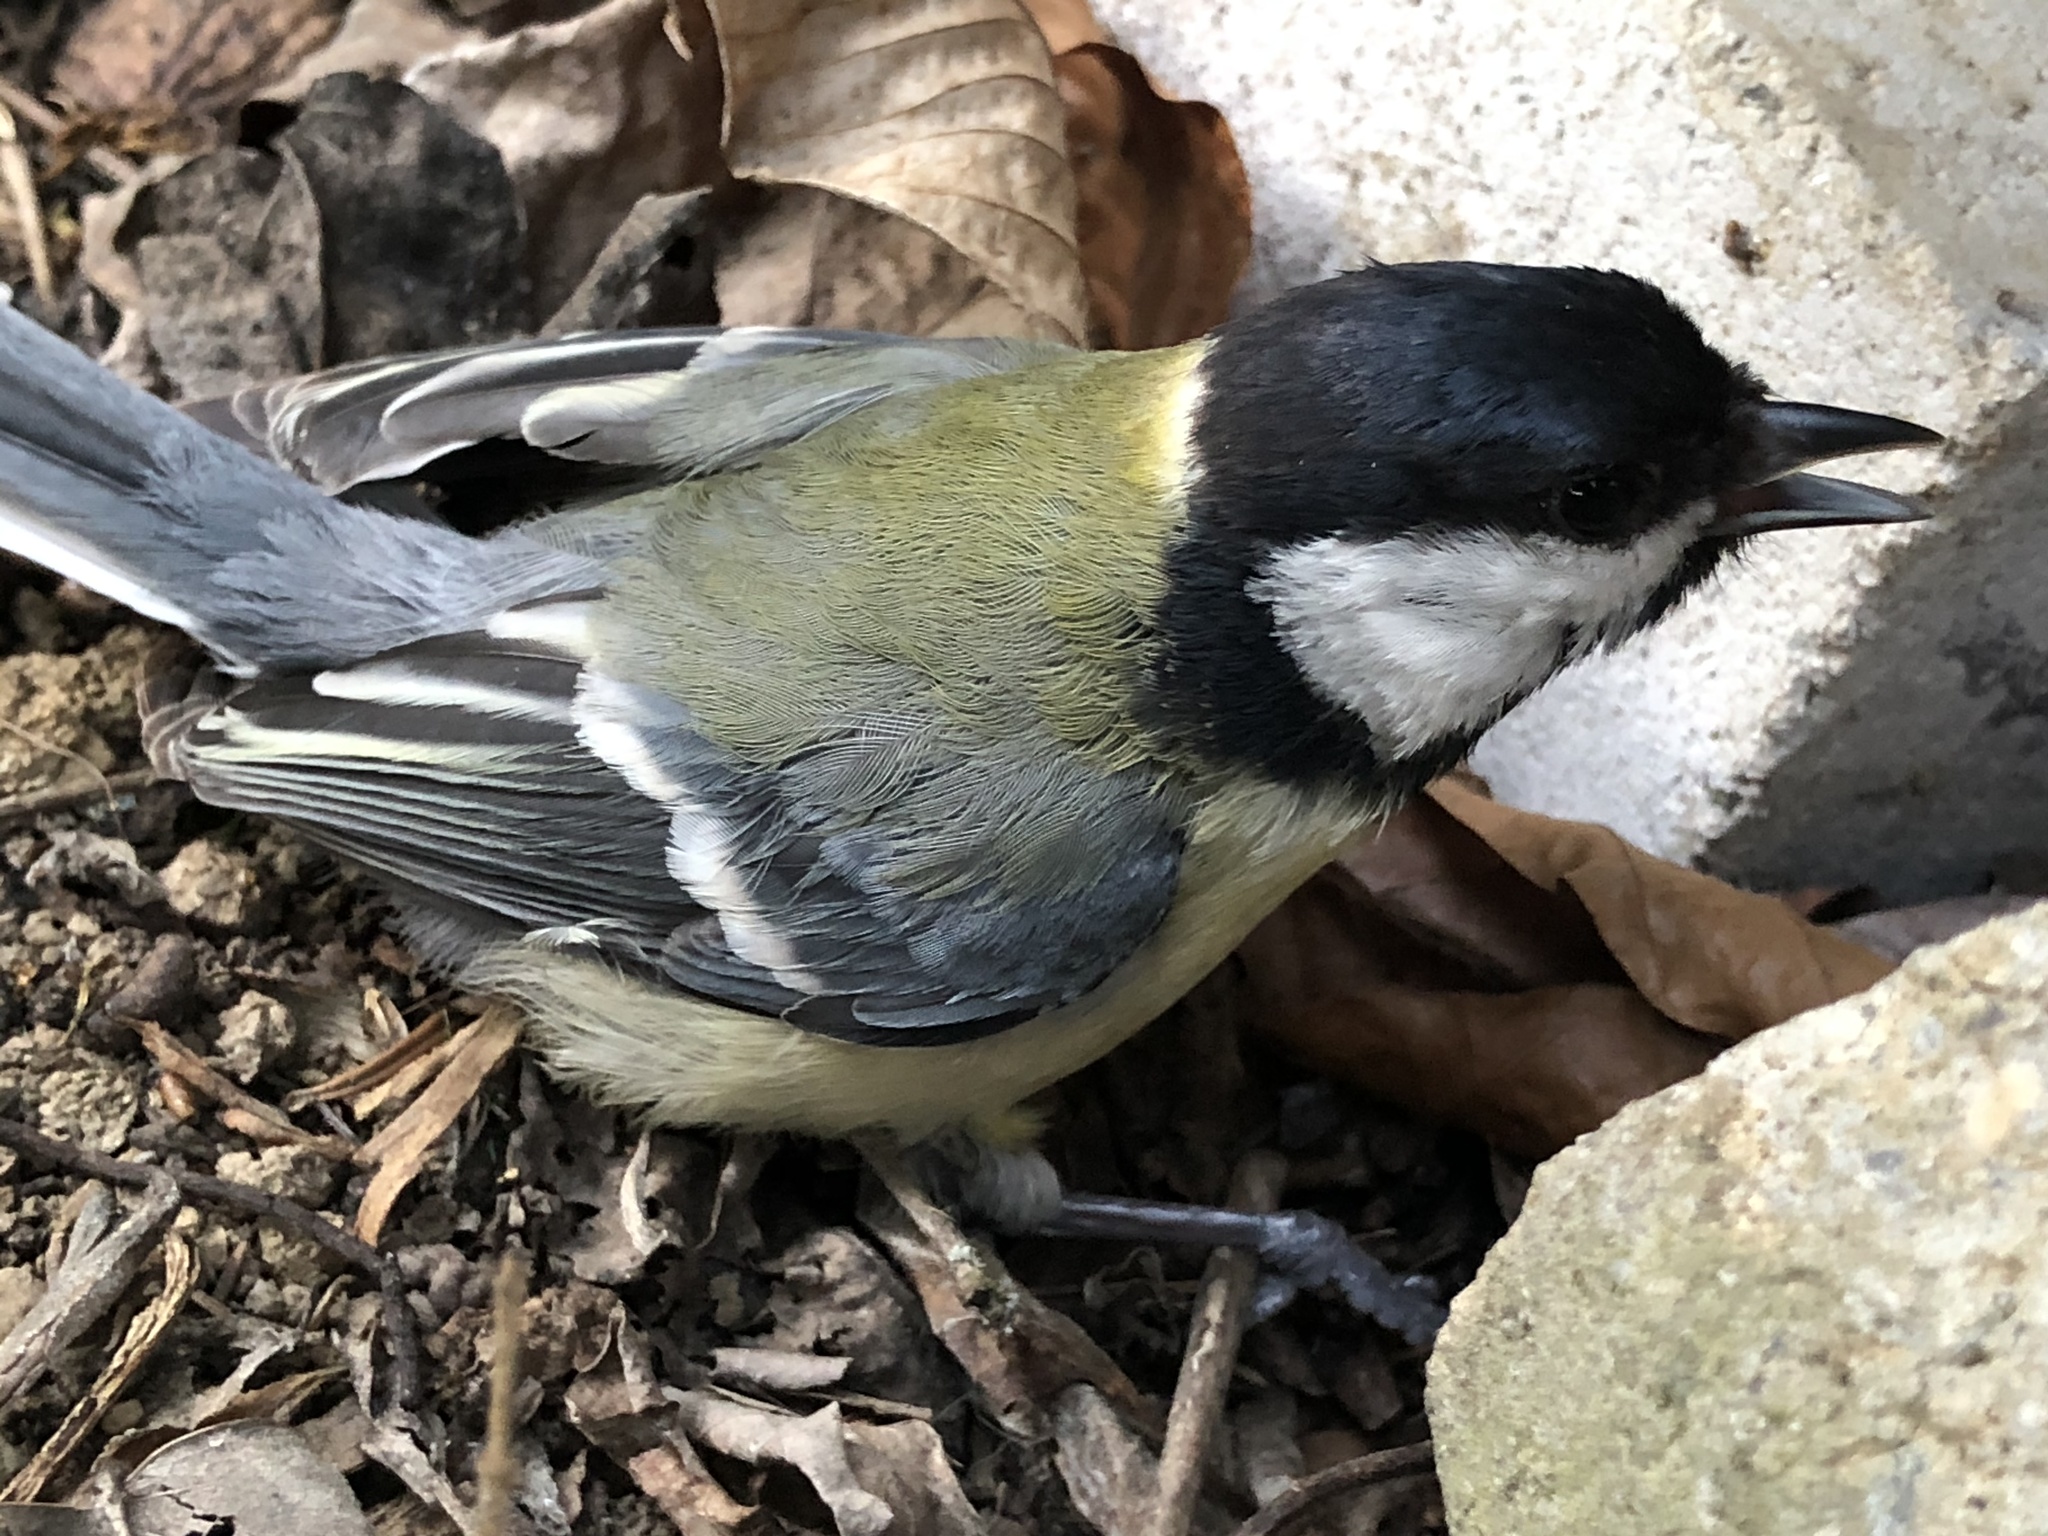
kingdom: Animalia
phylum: Chordata
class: Aves
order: Passeriformes
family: Paridae
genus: Parus
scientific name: Parus major
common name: Great tit
